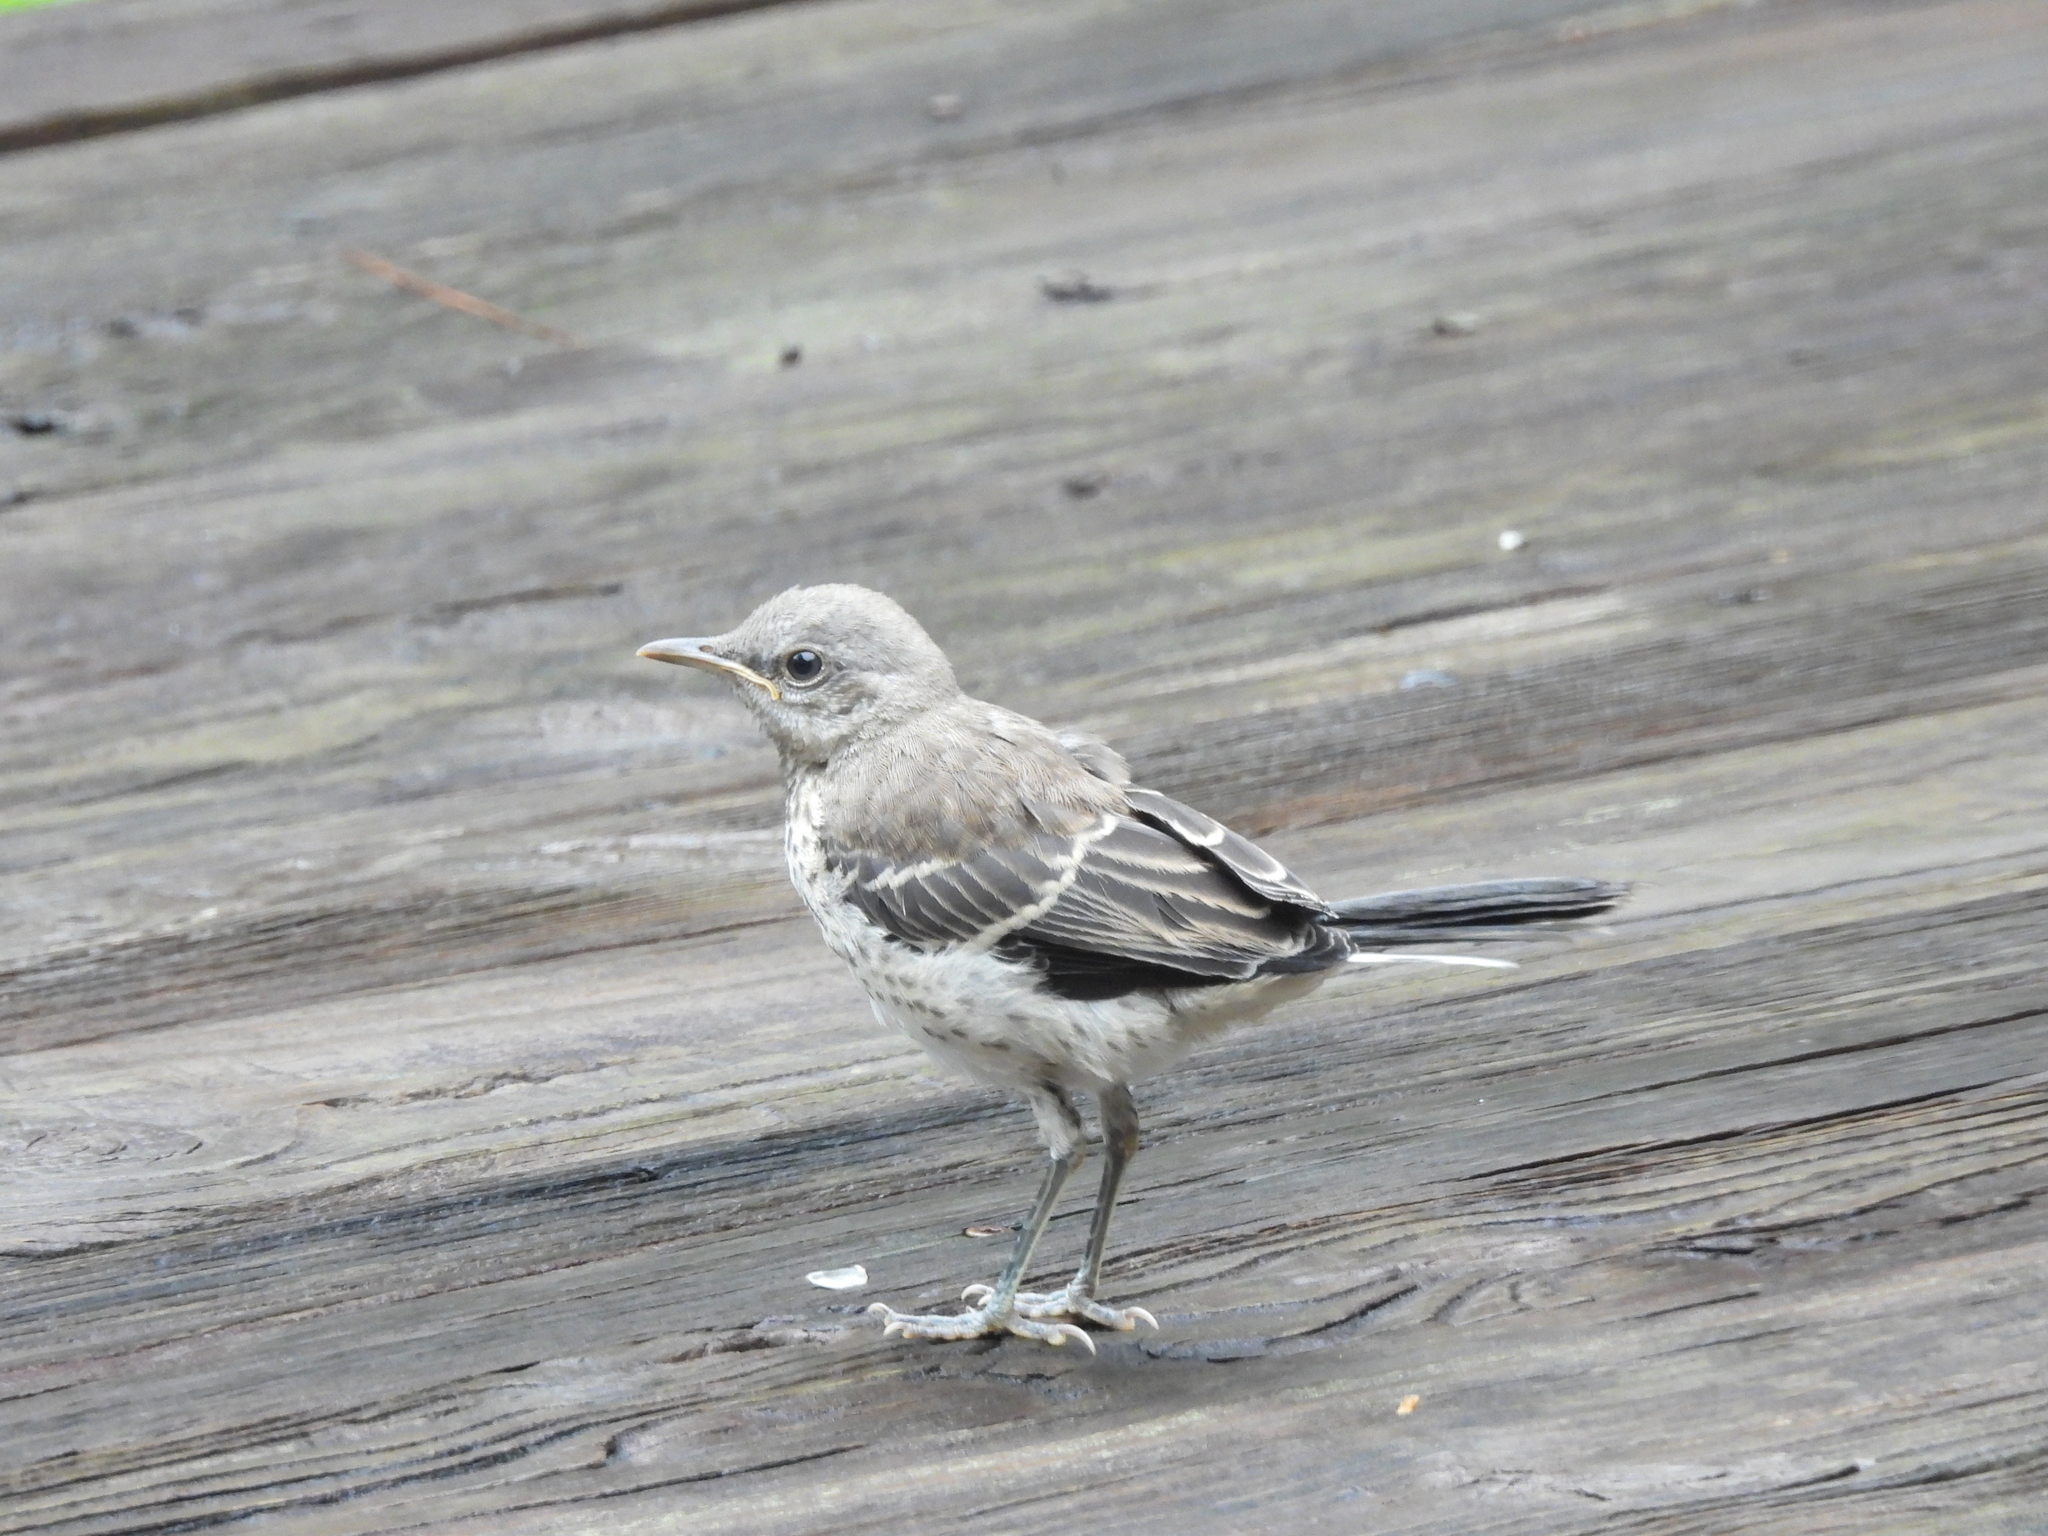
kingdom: Animalia
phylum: Chordata
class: Aves
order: Passeriformes
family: Mimidae
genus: Mimus
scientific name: Mimus polyglottos
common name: Northern mockingbird
